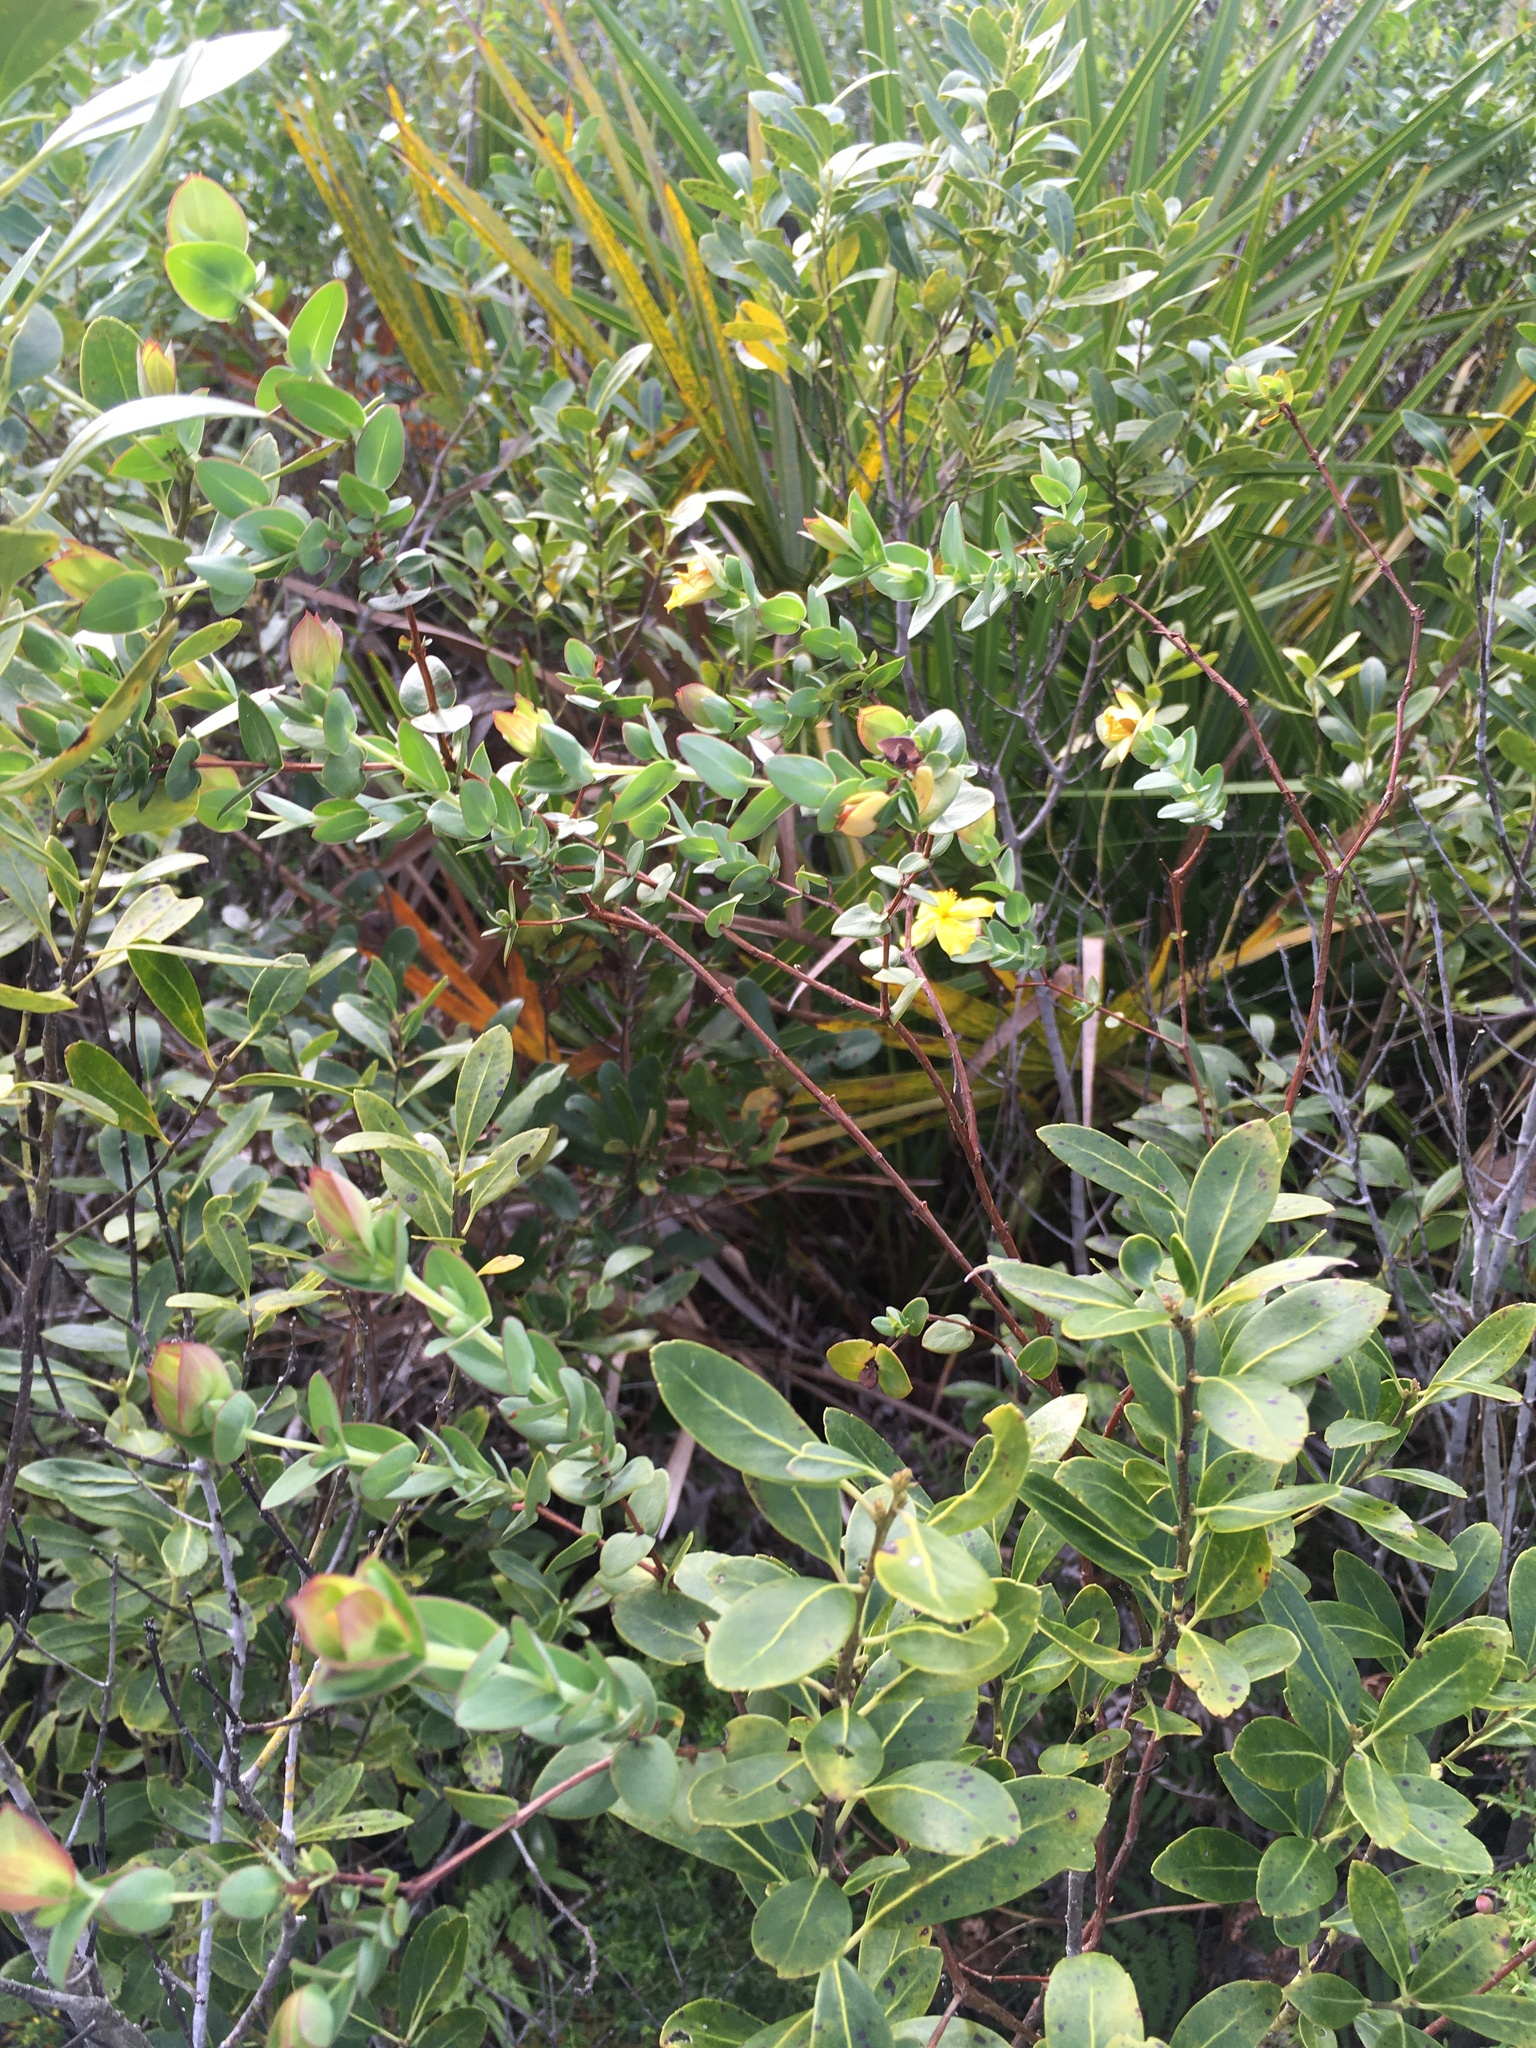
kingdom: Plantae
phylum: Tracheophyta
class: Magnoliopsida
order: Malpighiales
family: Hypericaceae
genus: Hypericum
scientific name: Hypericum tetrapetalum
